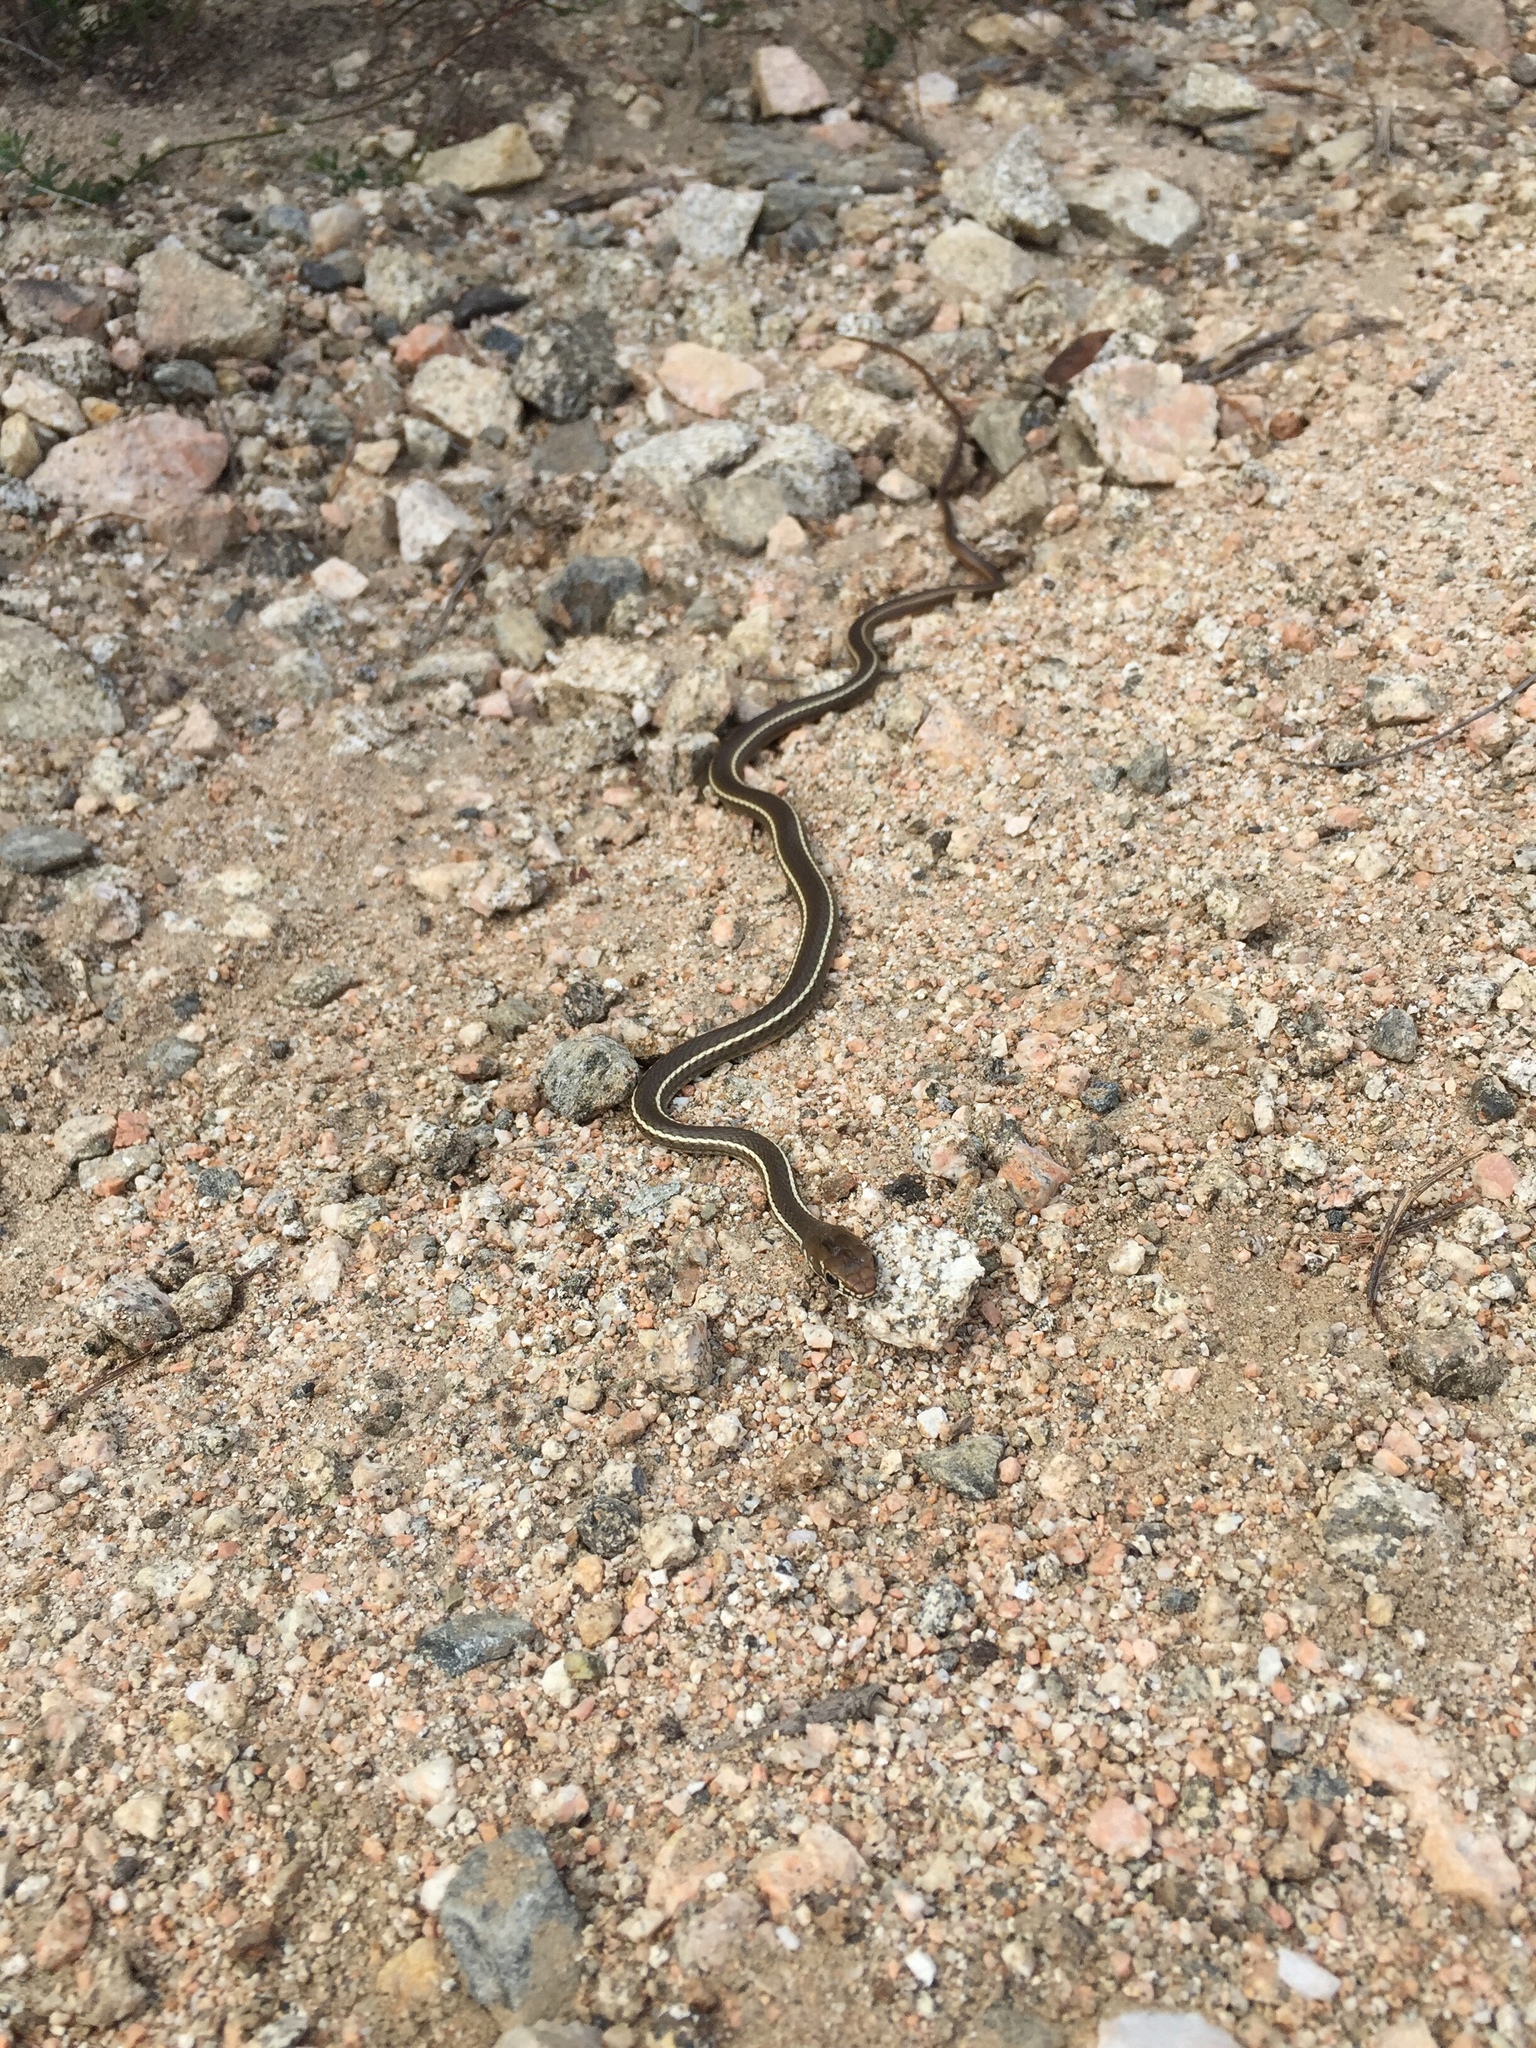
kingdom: Animalia
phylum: Chordata
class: Squamata
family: Colubridae
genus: Masticophis
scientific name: Masticophis lateralis
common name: Striped racer
